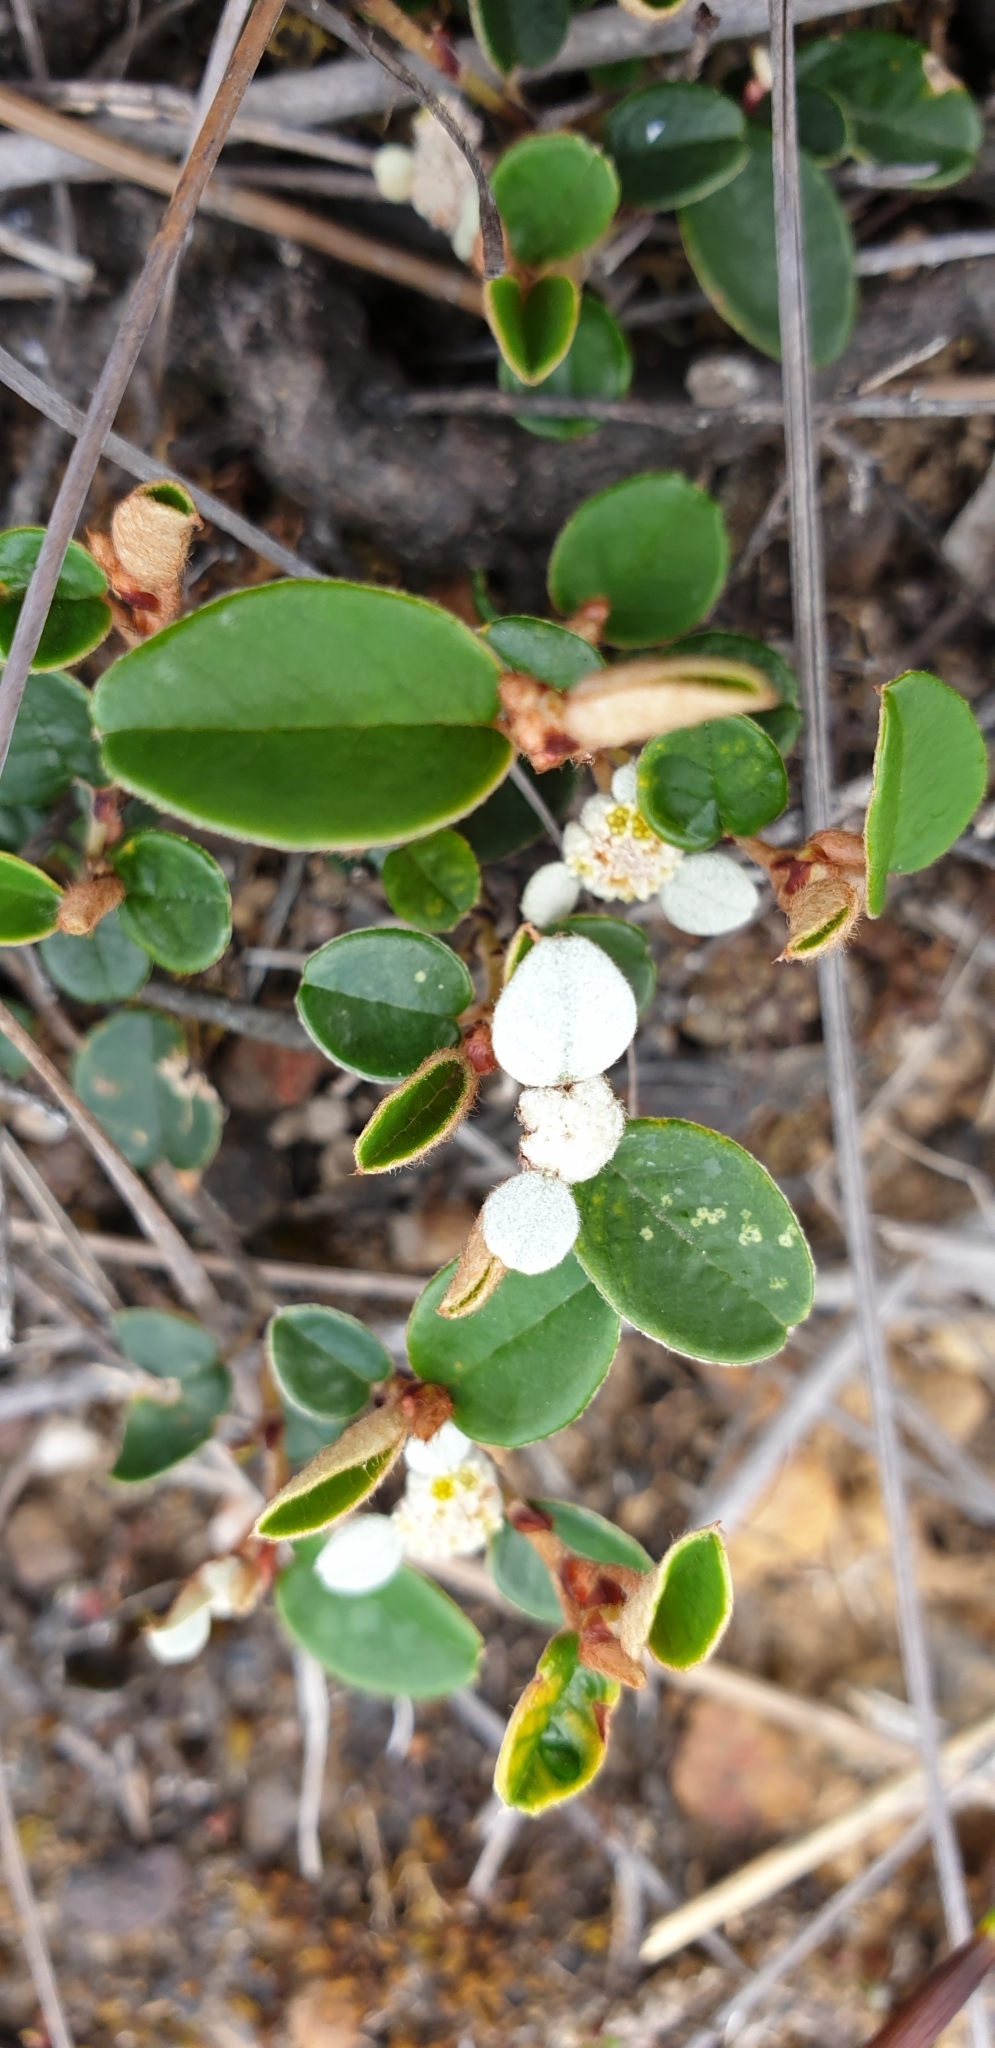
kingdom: Plantae
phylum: Tracheophyta
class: Magnoliopsida
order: Rosales
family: Rhamnaceae
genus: Spyridium
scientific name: Spyridium thymifolium
